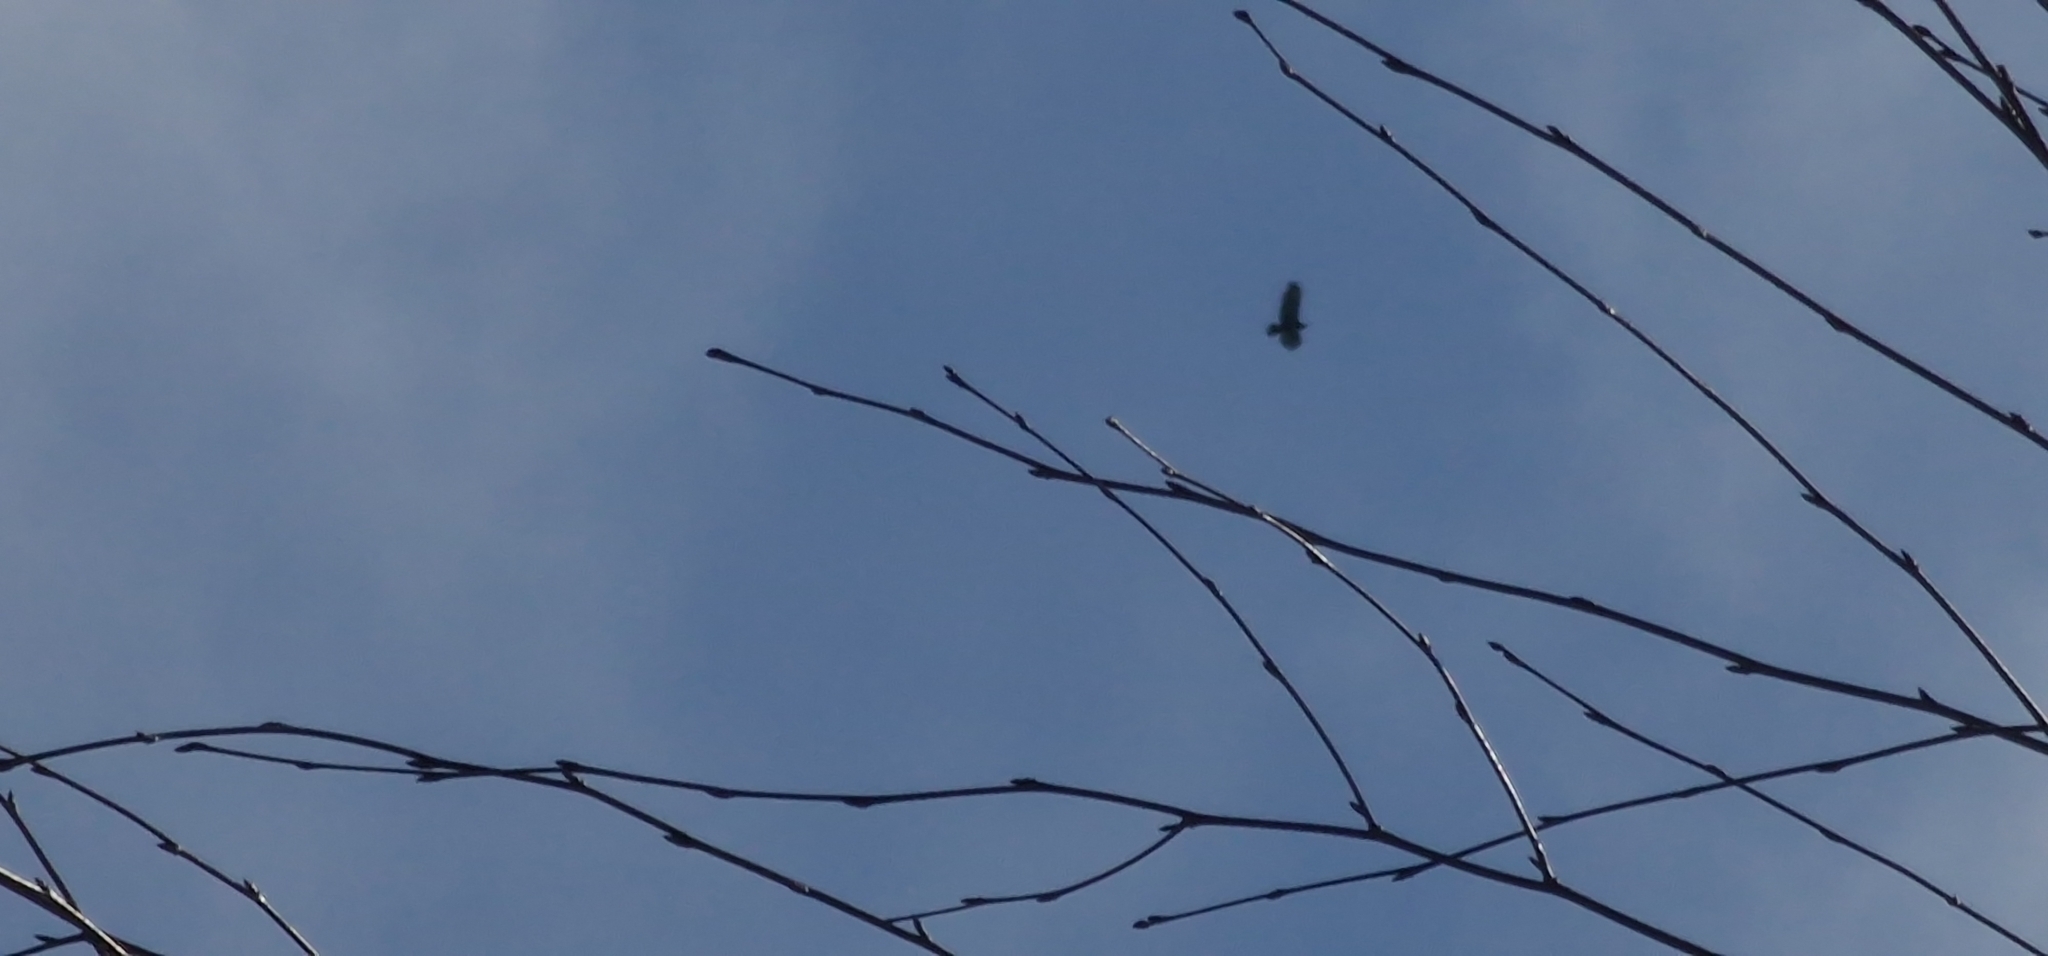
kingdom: Animalia
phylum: Chordata
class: Aves
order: Accipitriformes
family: Accipitridae
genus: Buteo
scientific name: Buteo buteo
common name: Common buzzard
